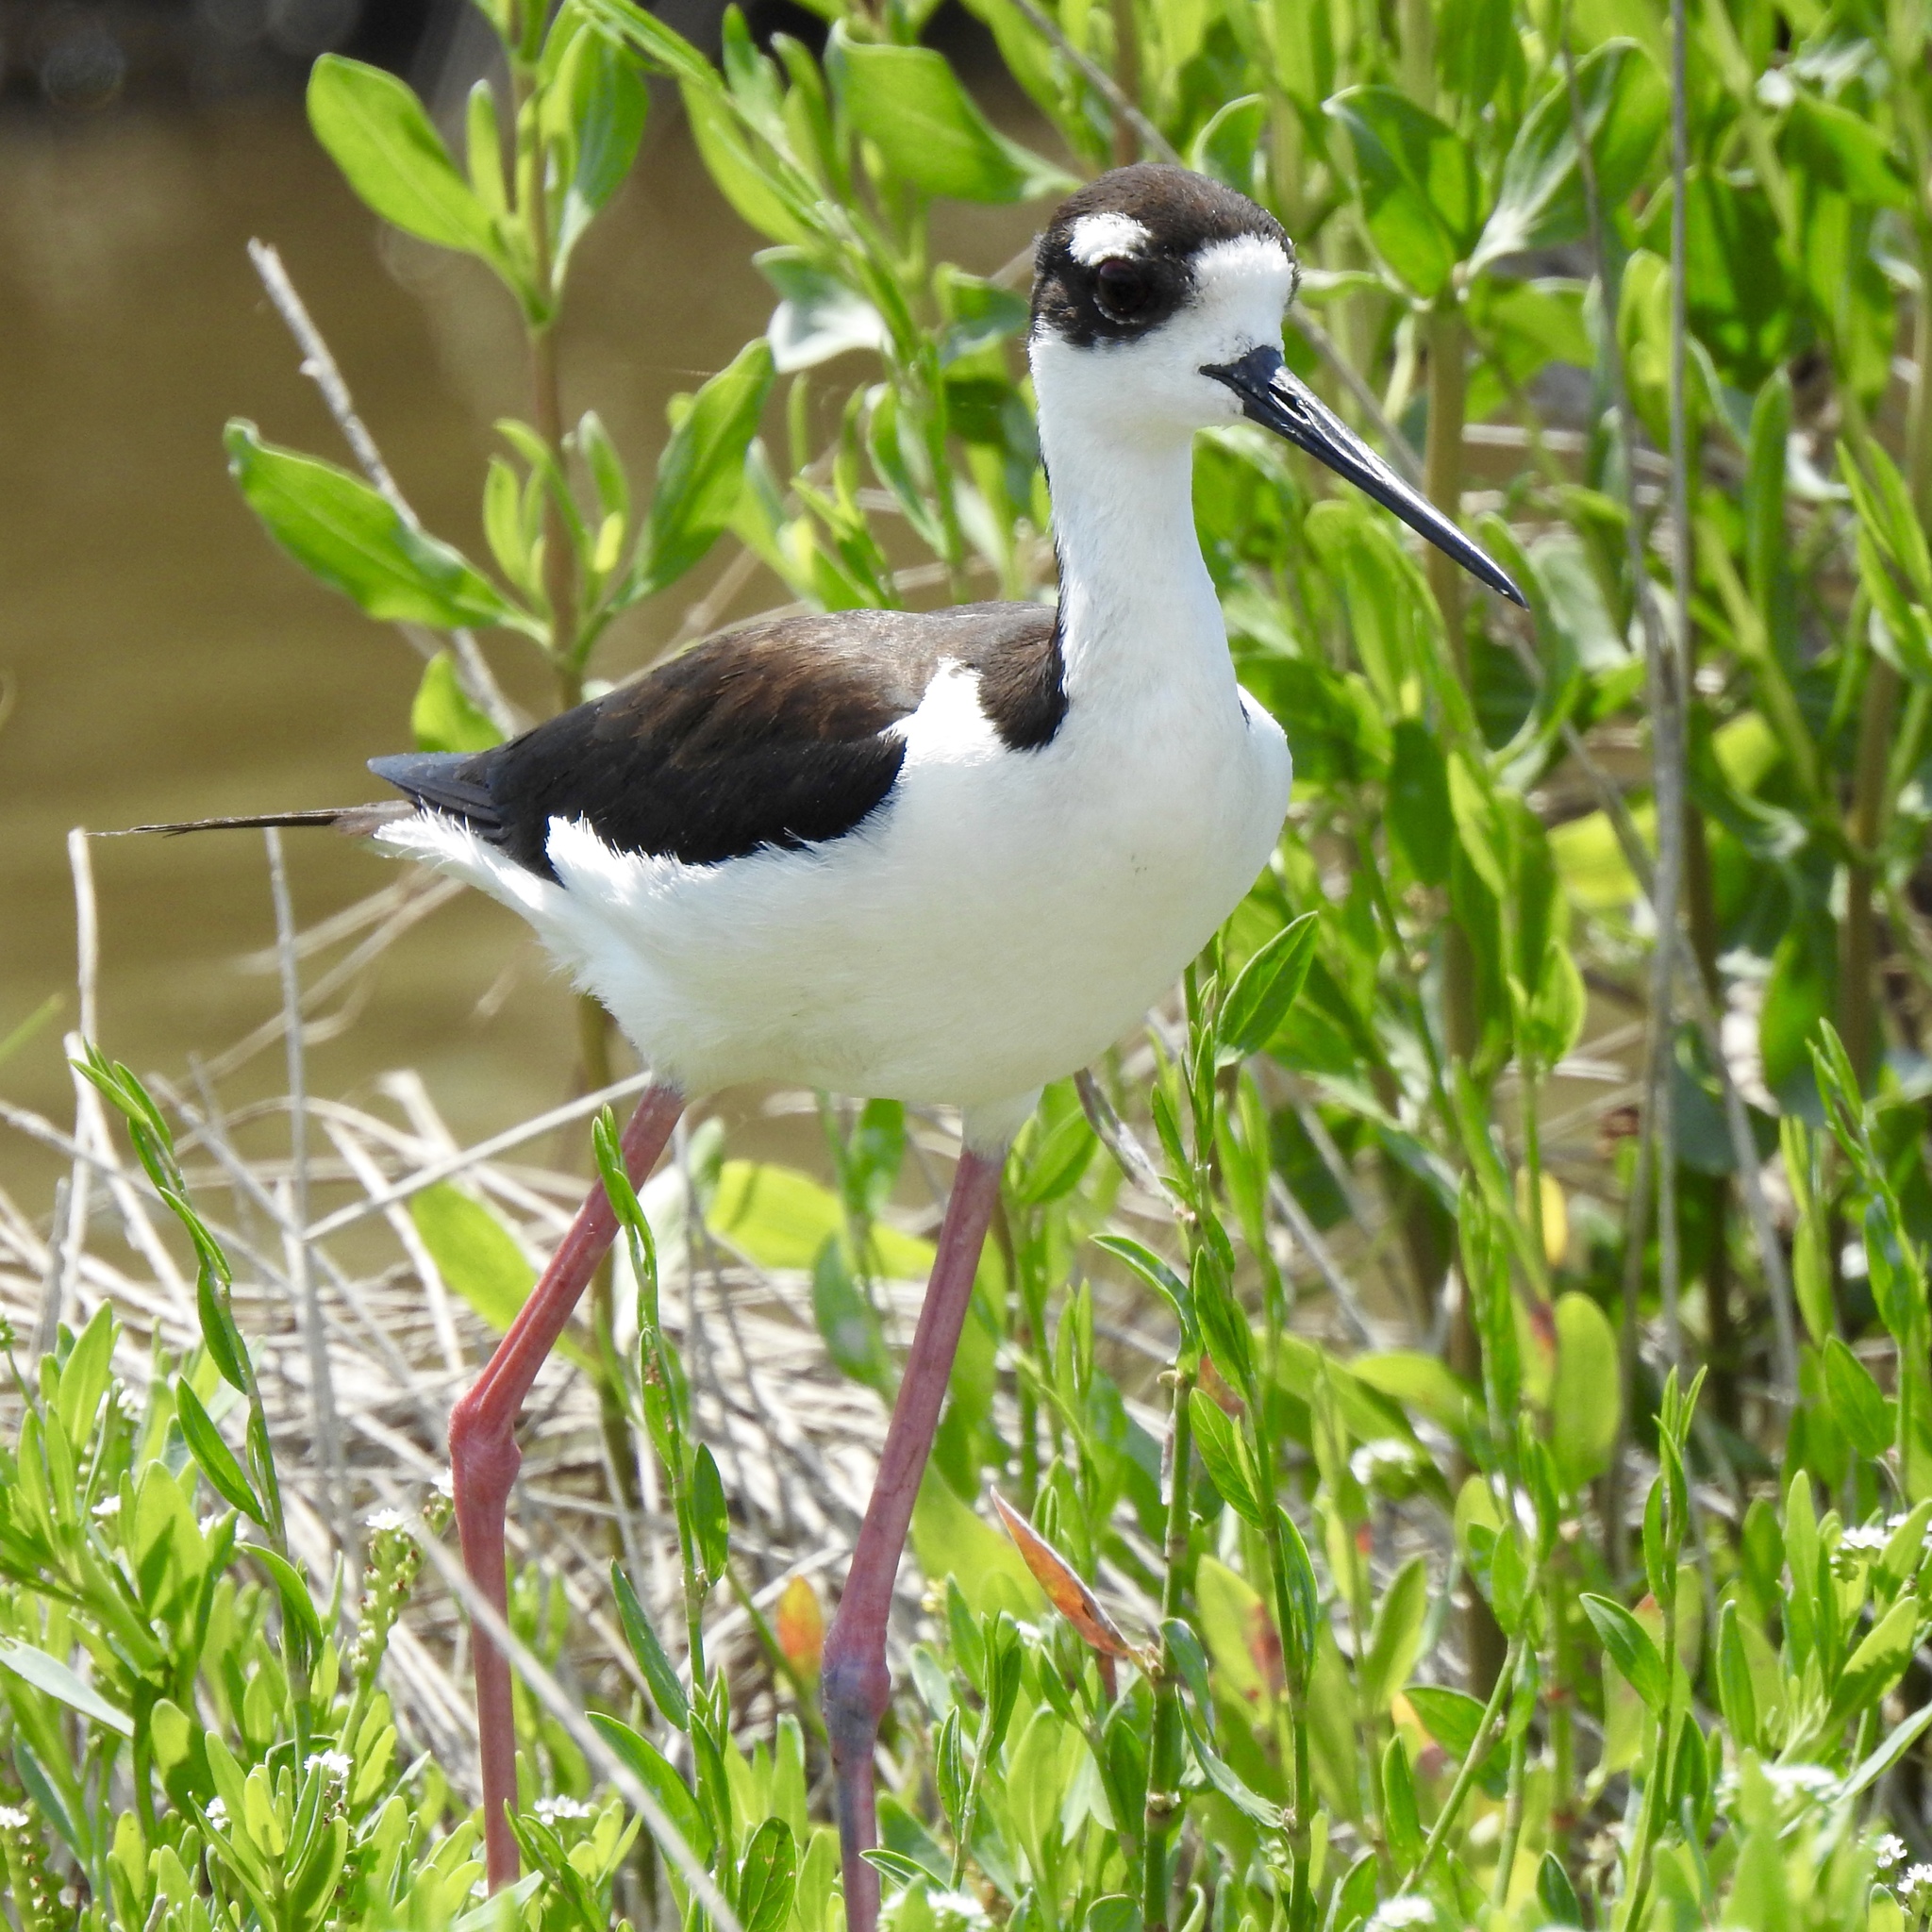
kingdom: Animalia
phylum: Chordata
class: Aves
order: Charadriiformes
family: Recurvirostridae
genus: Himantopus
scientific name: Himantopus mexicanus
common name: Black-necked stilt
